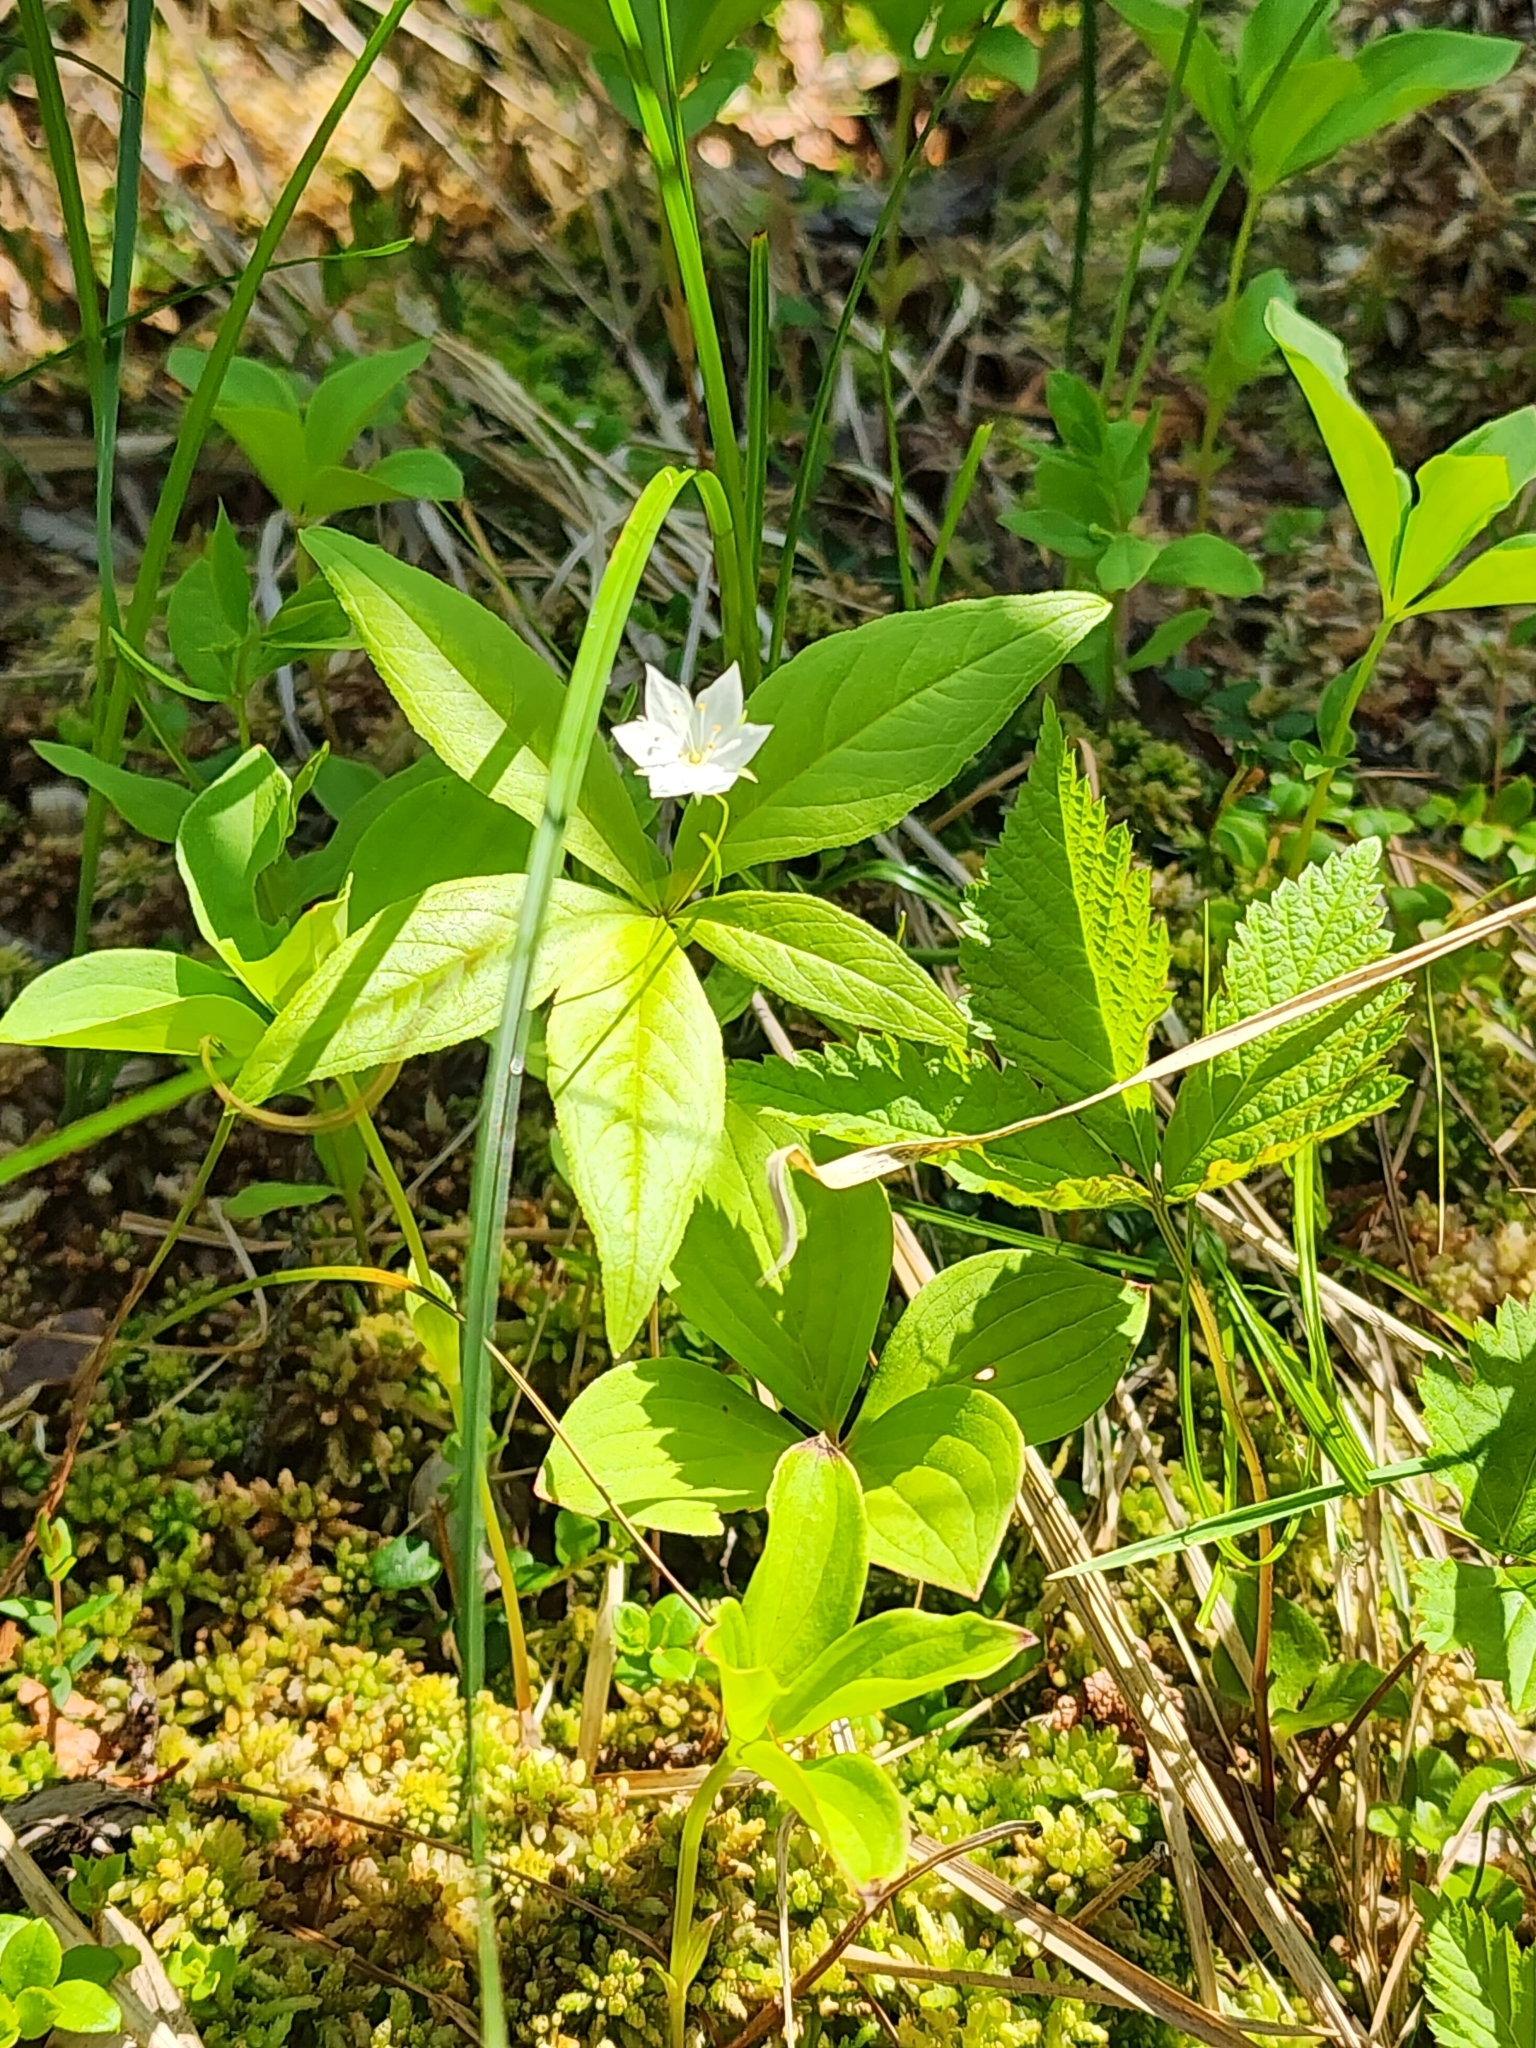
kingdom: Plantae
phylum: Tracheophyta
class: Magnoliopsida
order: Ericales
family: Primulaceae
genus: Lysimachia
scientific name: Lysimachia borealis
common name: American starflower
